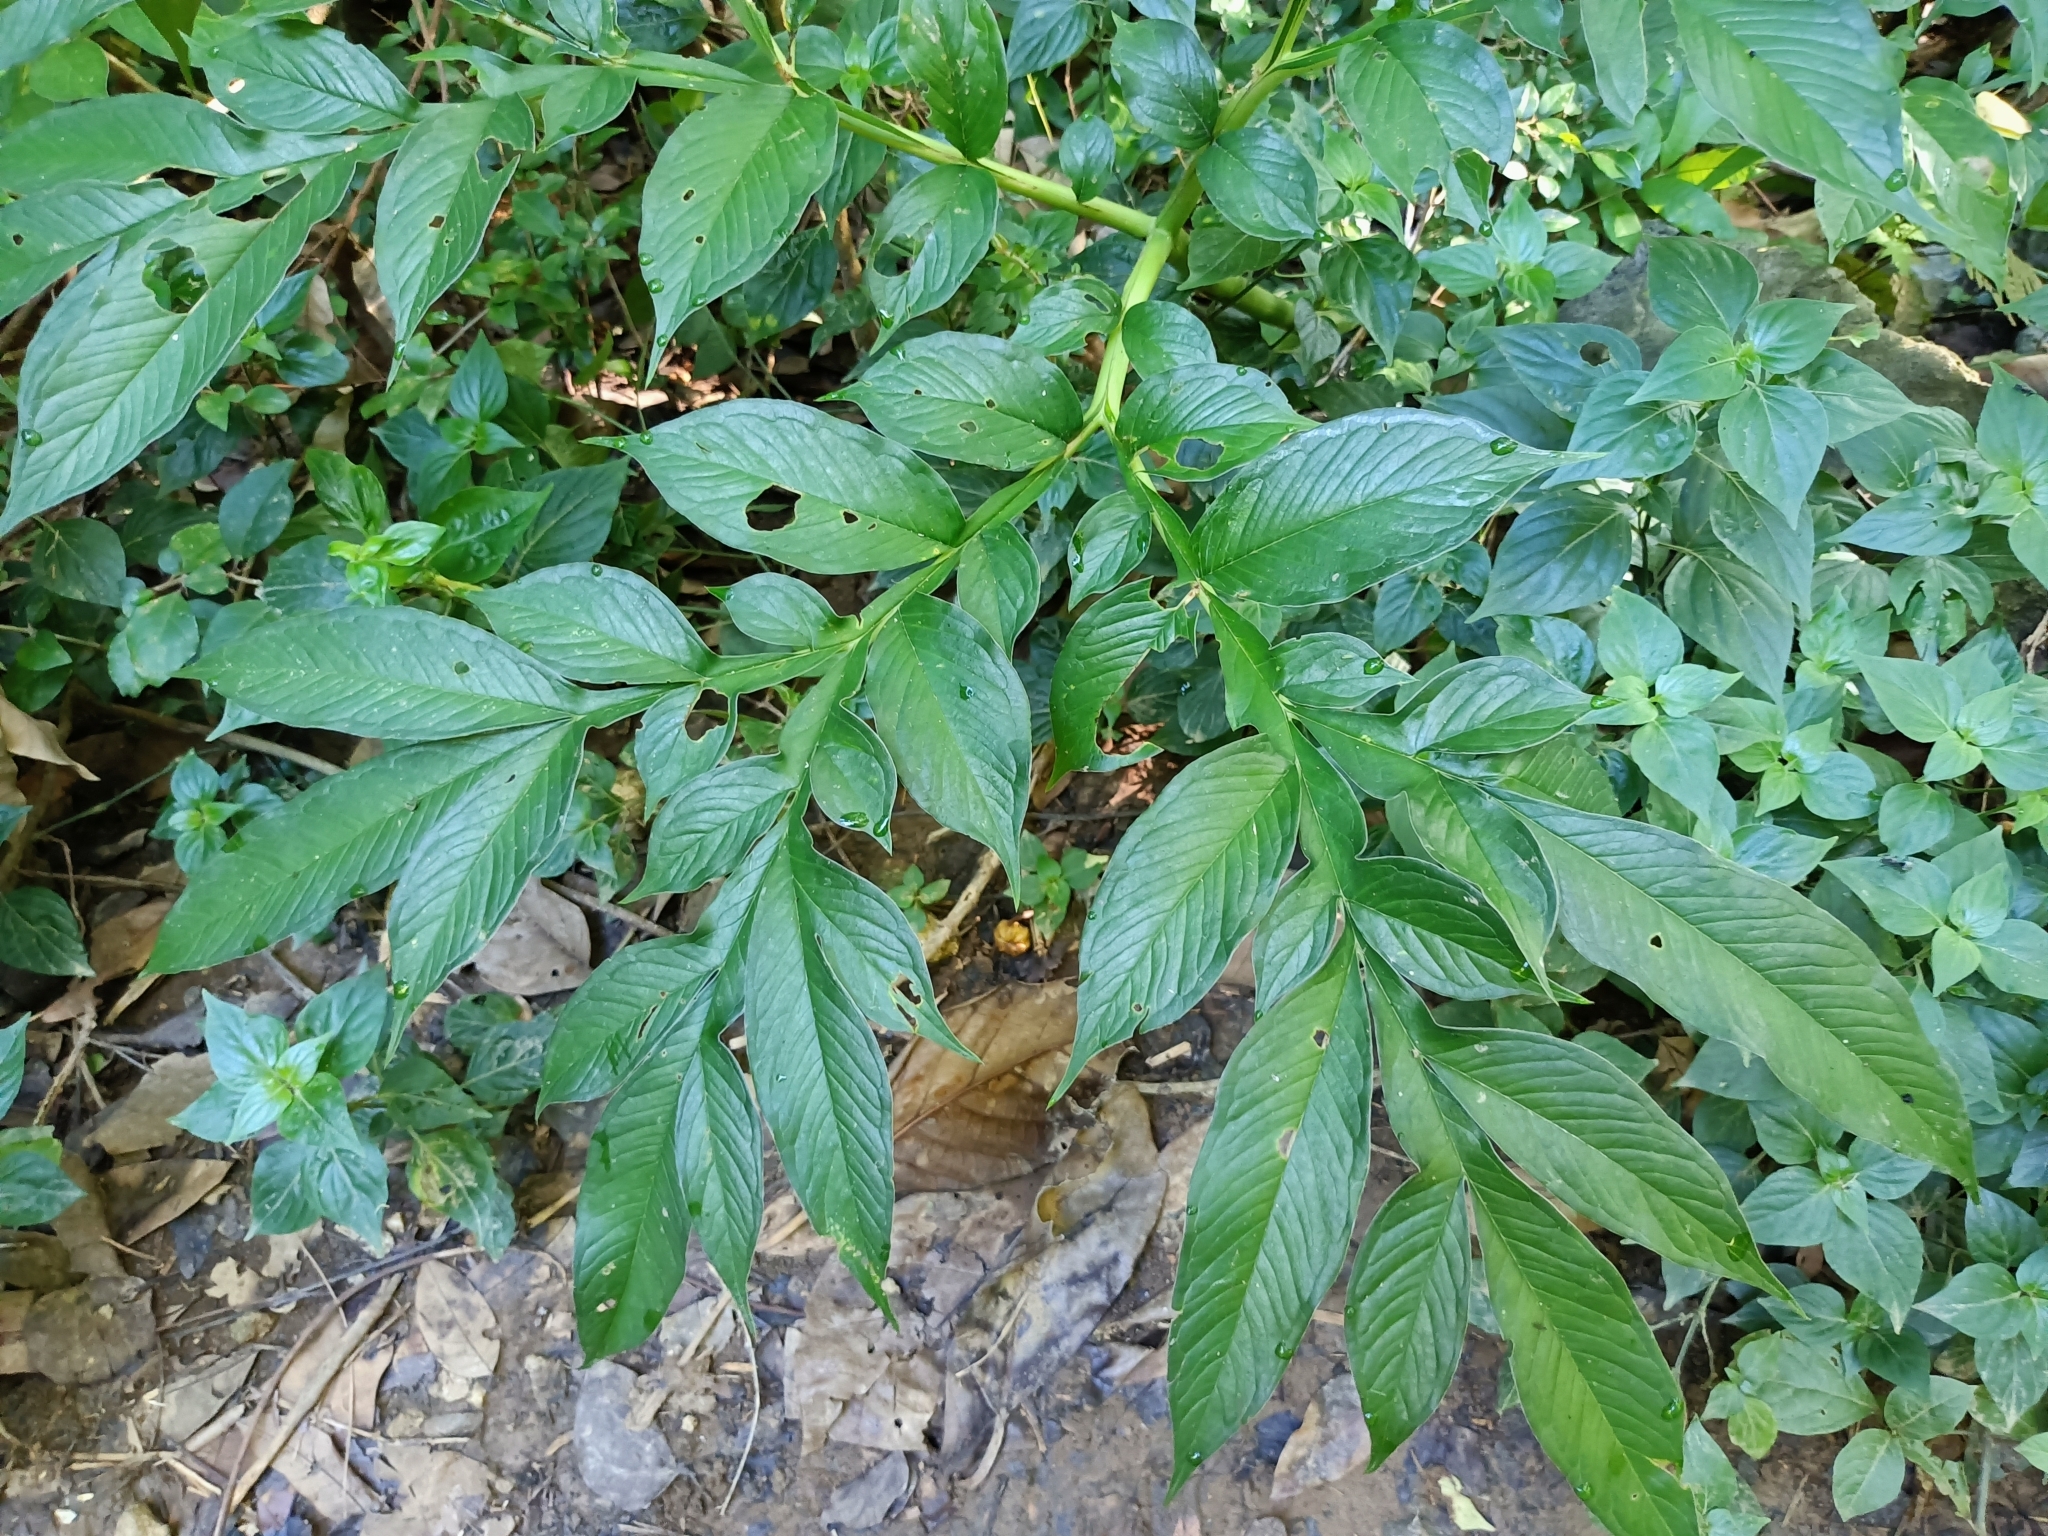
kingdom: Plantae
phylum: Tracheophyta
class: Liliopsida
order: Alismatales
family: Araceae
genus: Amorphophallus
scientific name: Amorphophallus henryi
